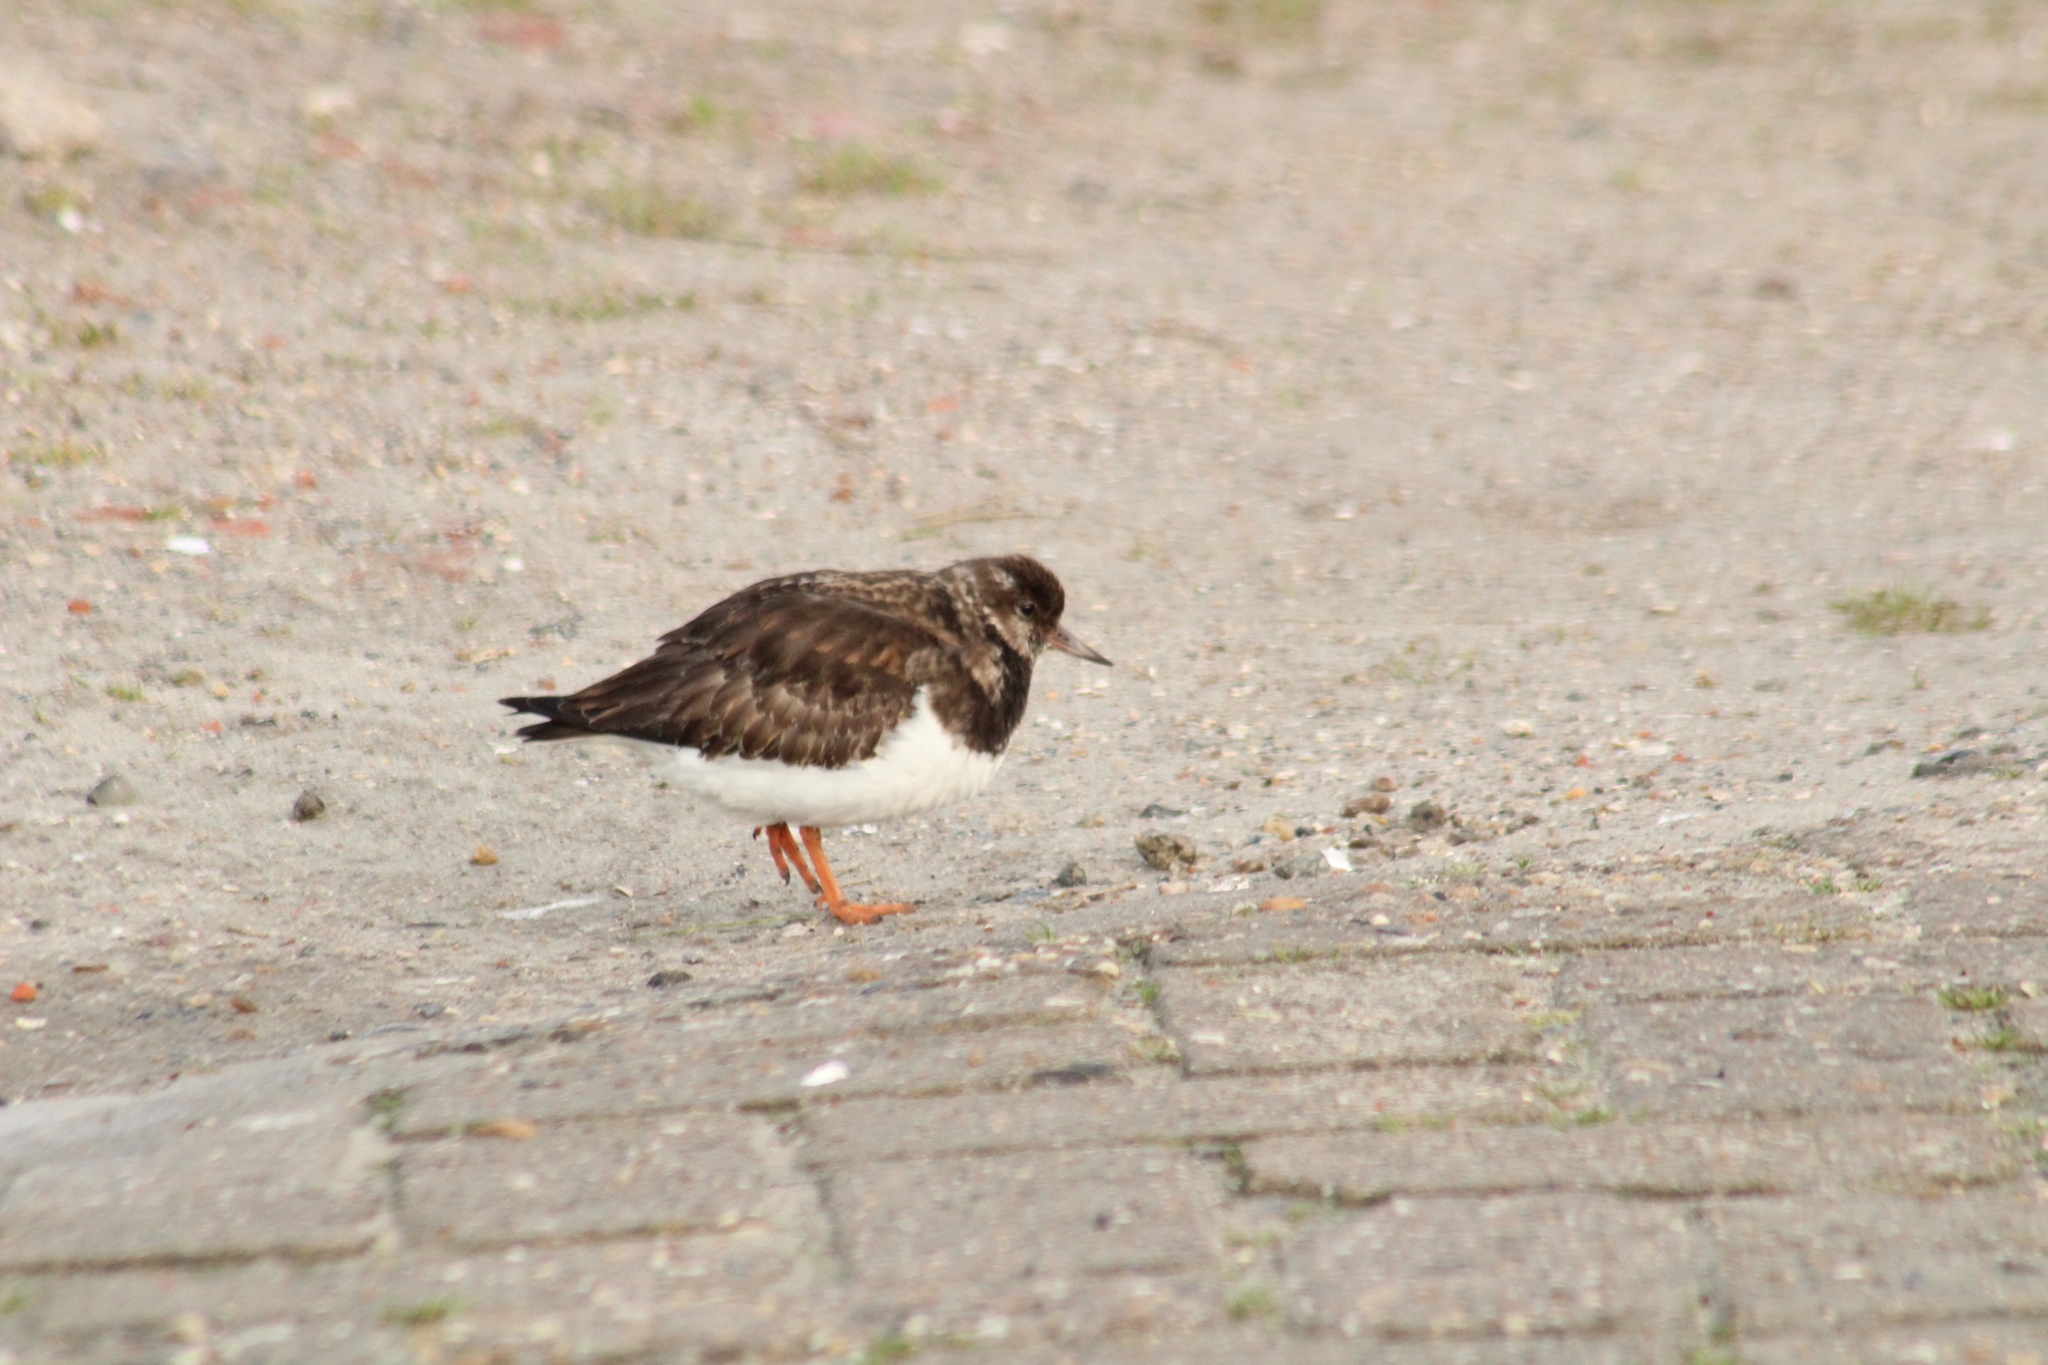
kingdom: Animalia
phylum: Chordata
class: Aves
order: Charadriiformes
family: Scolopacidae
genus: Arenaria
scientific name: Arenaria interpres
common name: Ruddy turnstone
